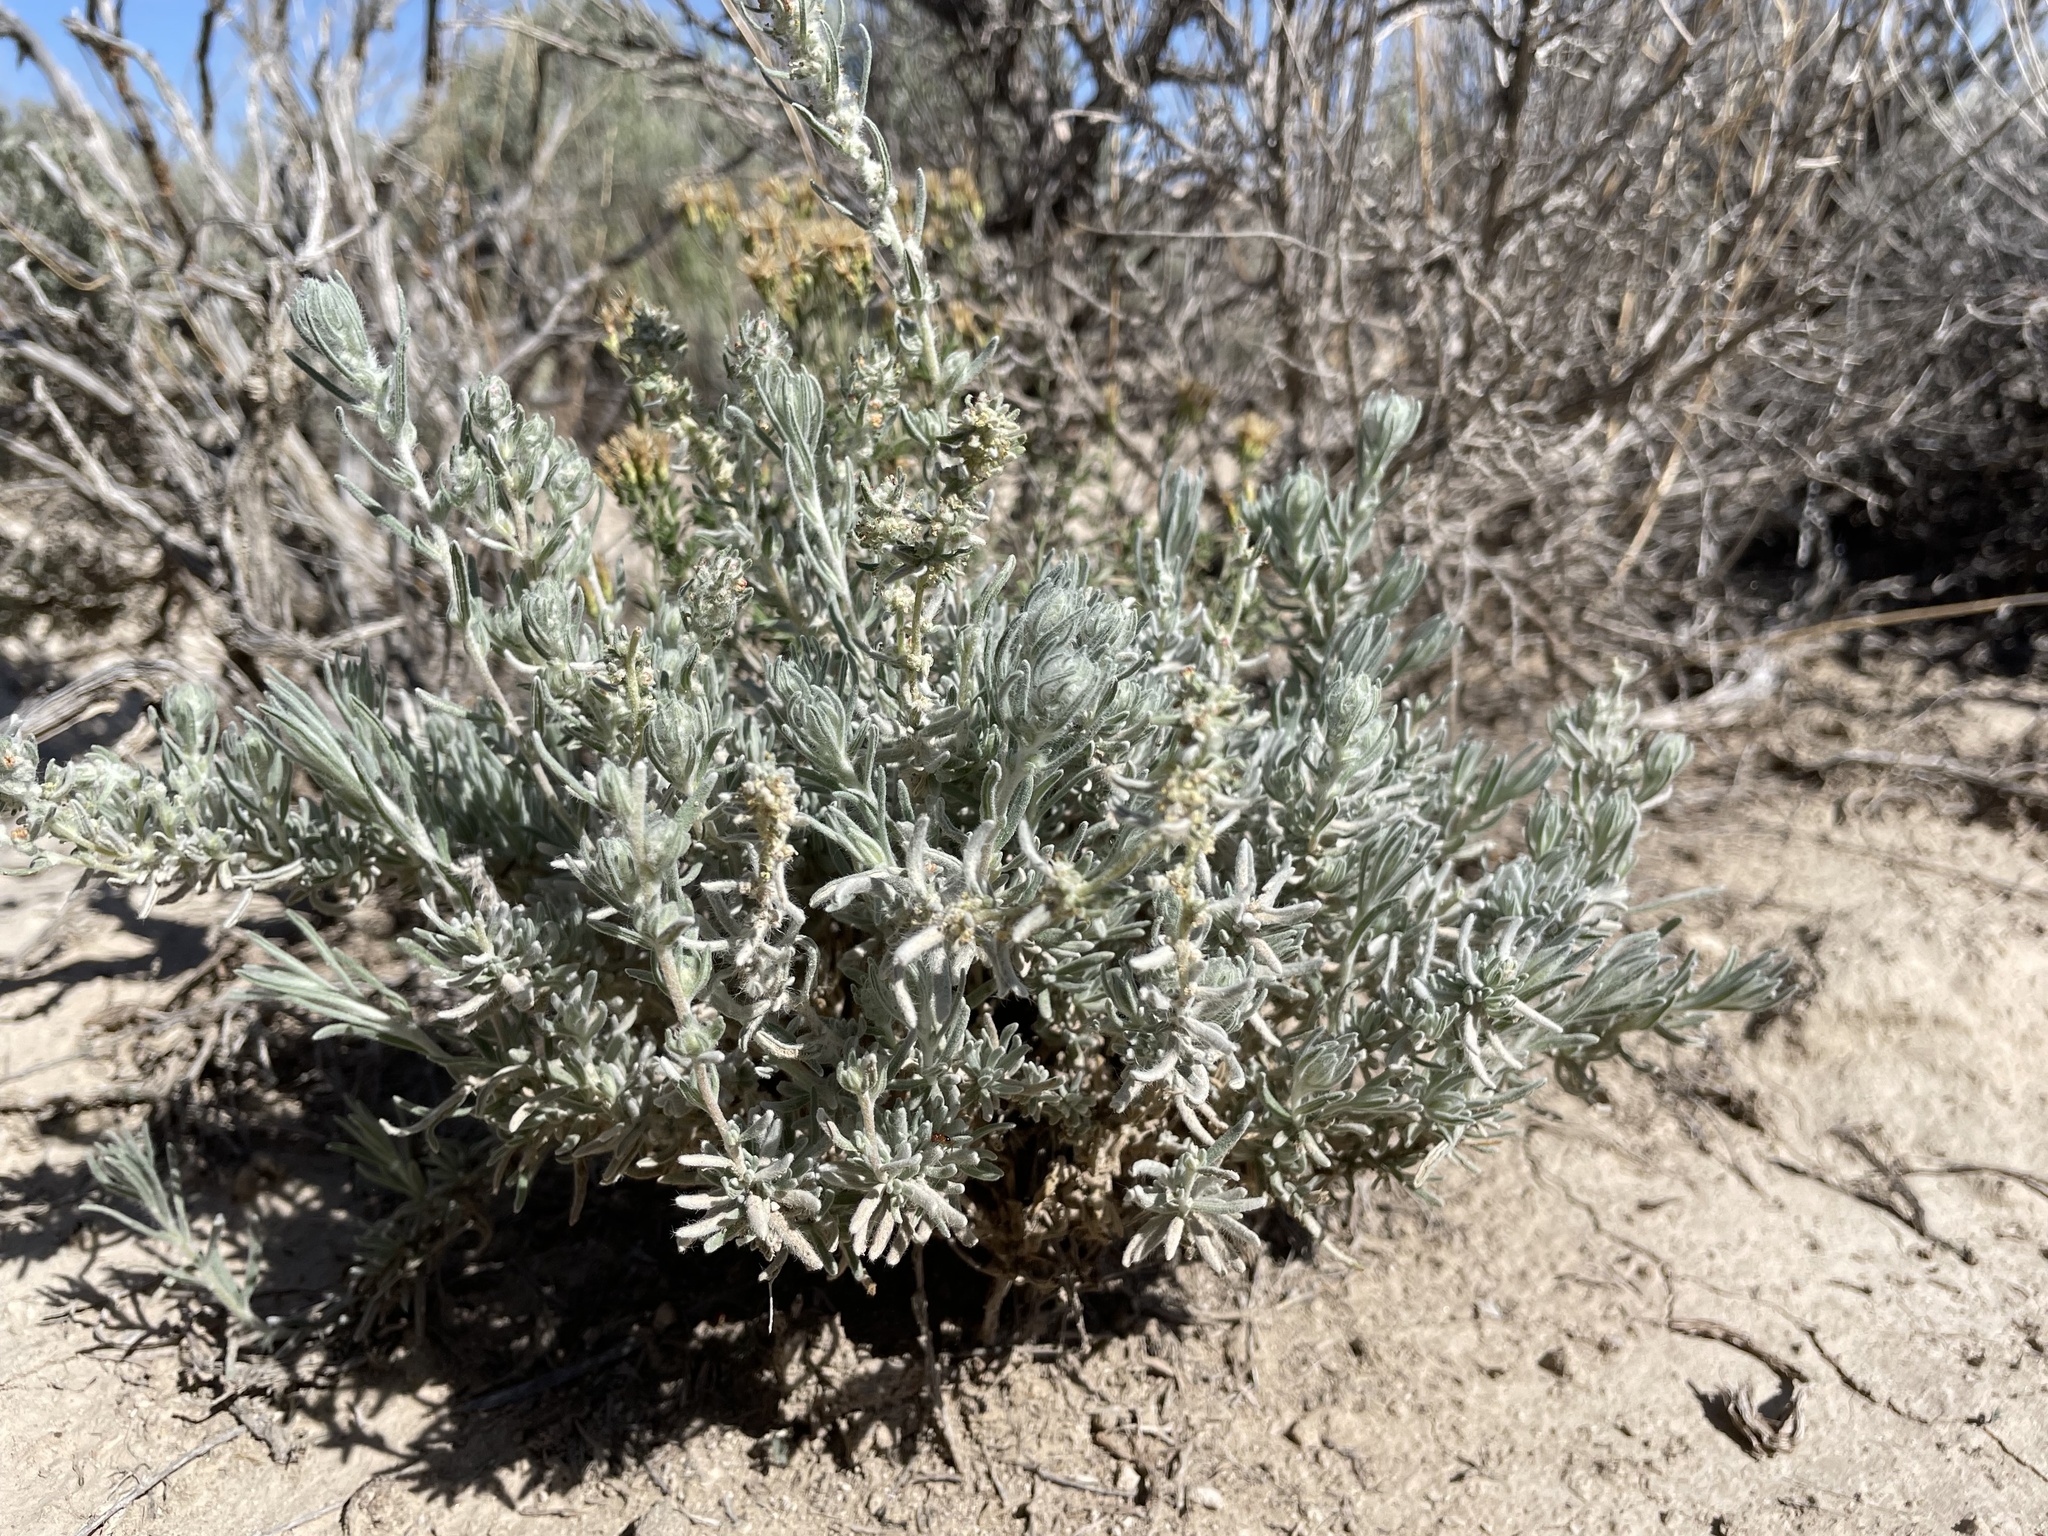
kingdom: Plantae
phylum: Tracheophyta
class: Magnoliopsida
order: Caryophyllales
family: Amaranthaceae
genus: Krascheninnikovia
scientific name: Krascheninnikovia lanata
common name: Winterfat
